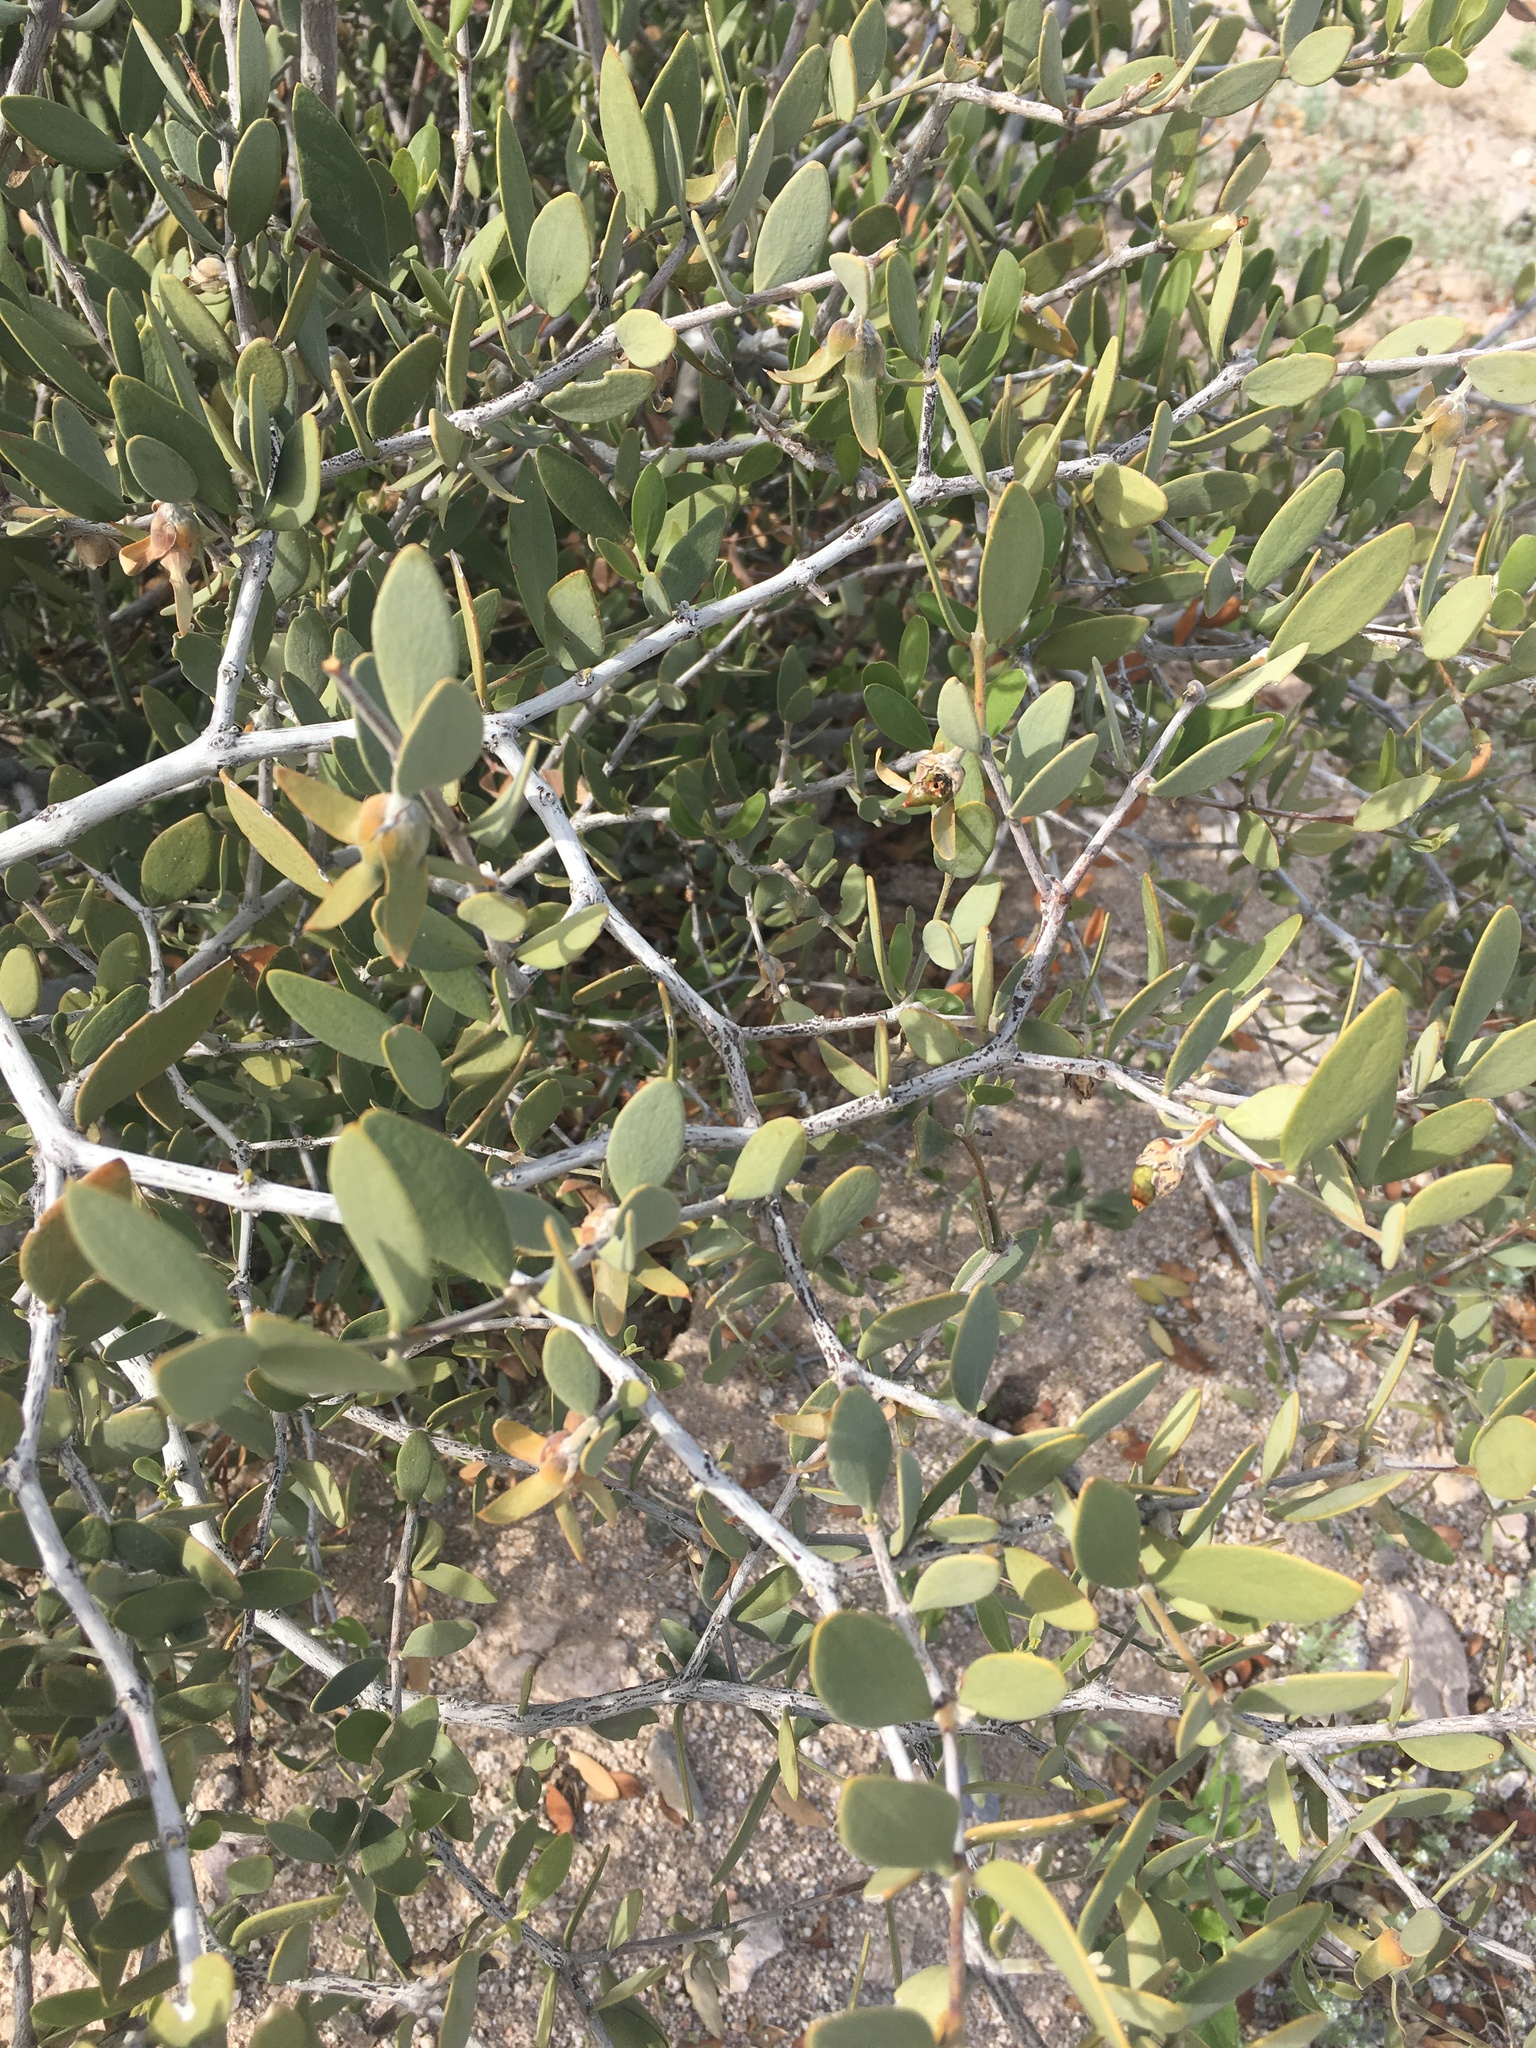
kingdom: Plantae
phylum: Tracheophyta
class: Magnoliopsida
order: Caryophyllales
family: Simmondsiaceae
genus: Simmondsia
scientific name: Simmondsia chinensis
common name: Jojoba
